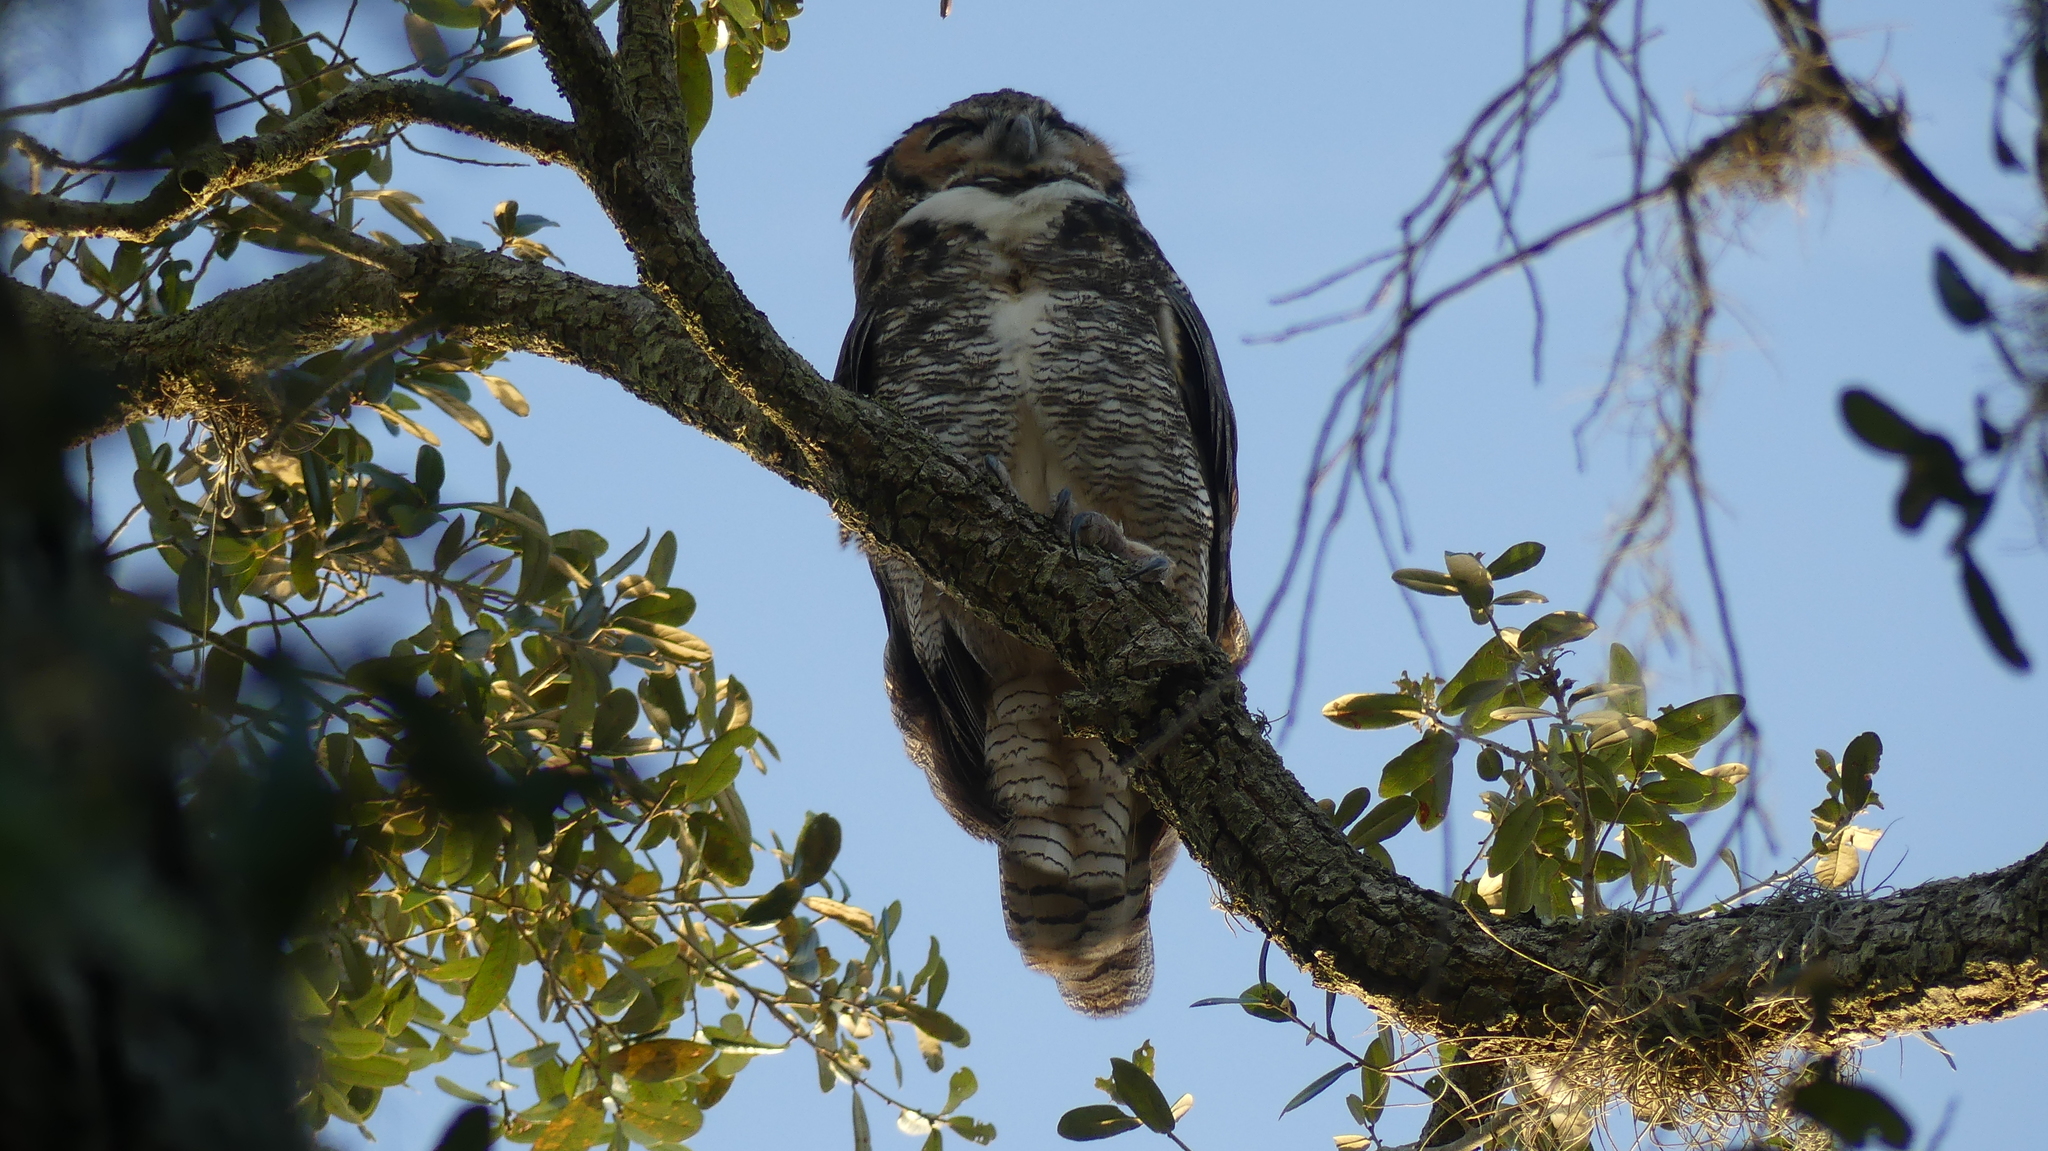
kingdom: Animalia
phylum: Chordata
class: Aves
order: Strigiformes
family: Strigidae
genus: Bubo
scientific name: Bubo virginianus
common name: Great horned owl
